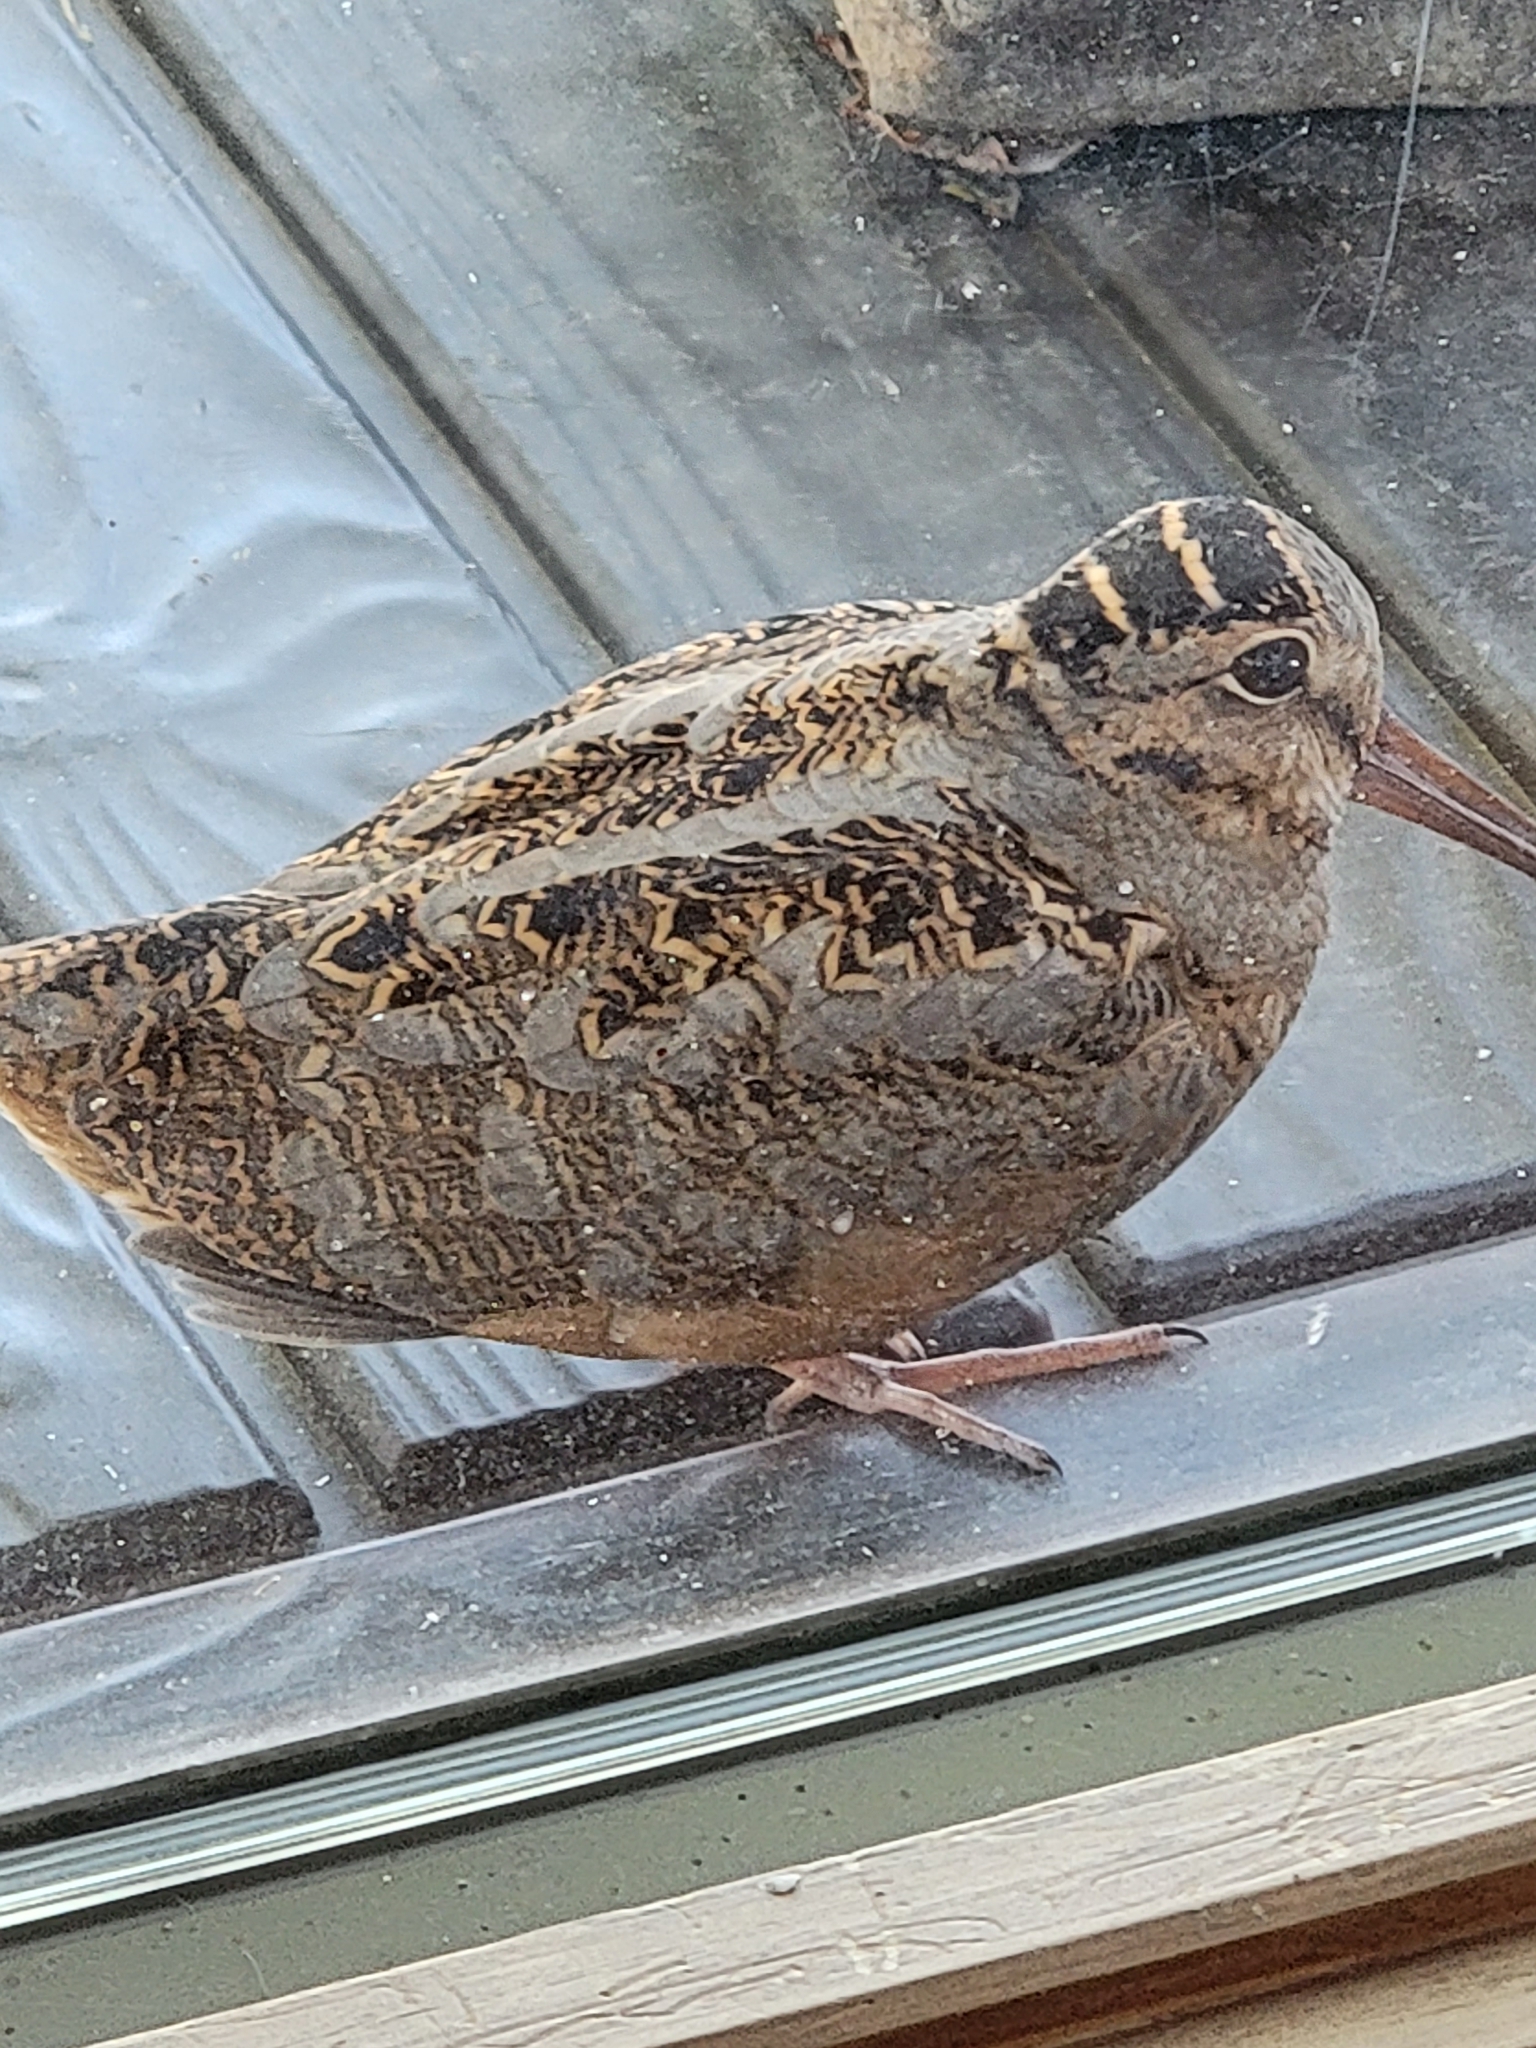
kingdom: Animalia
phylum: Chordata
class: Aves
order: Charadriiformes
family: Scolopacidae
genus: Scolopax
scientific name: Scolopax minor
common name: American woodcock
